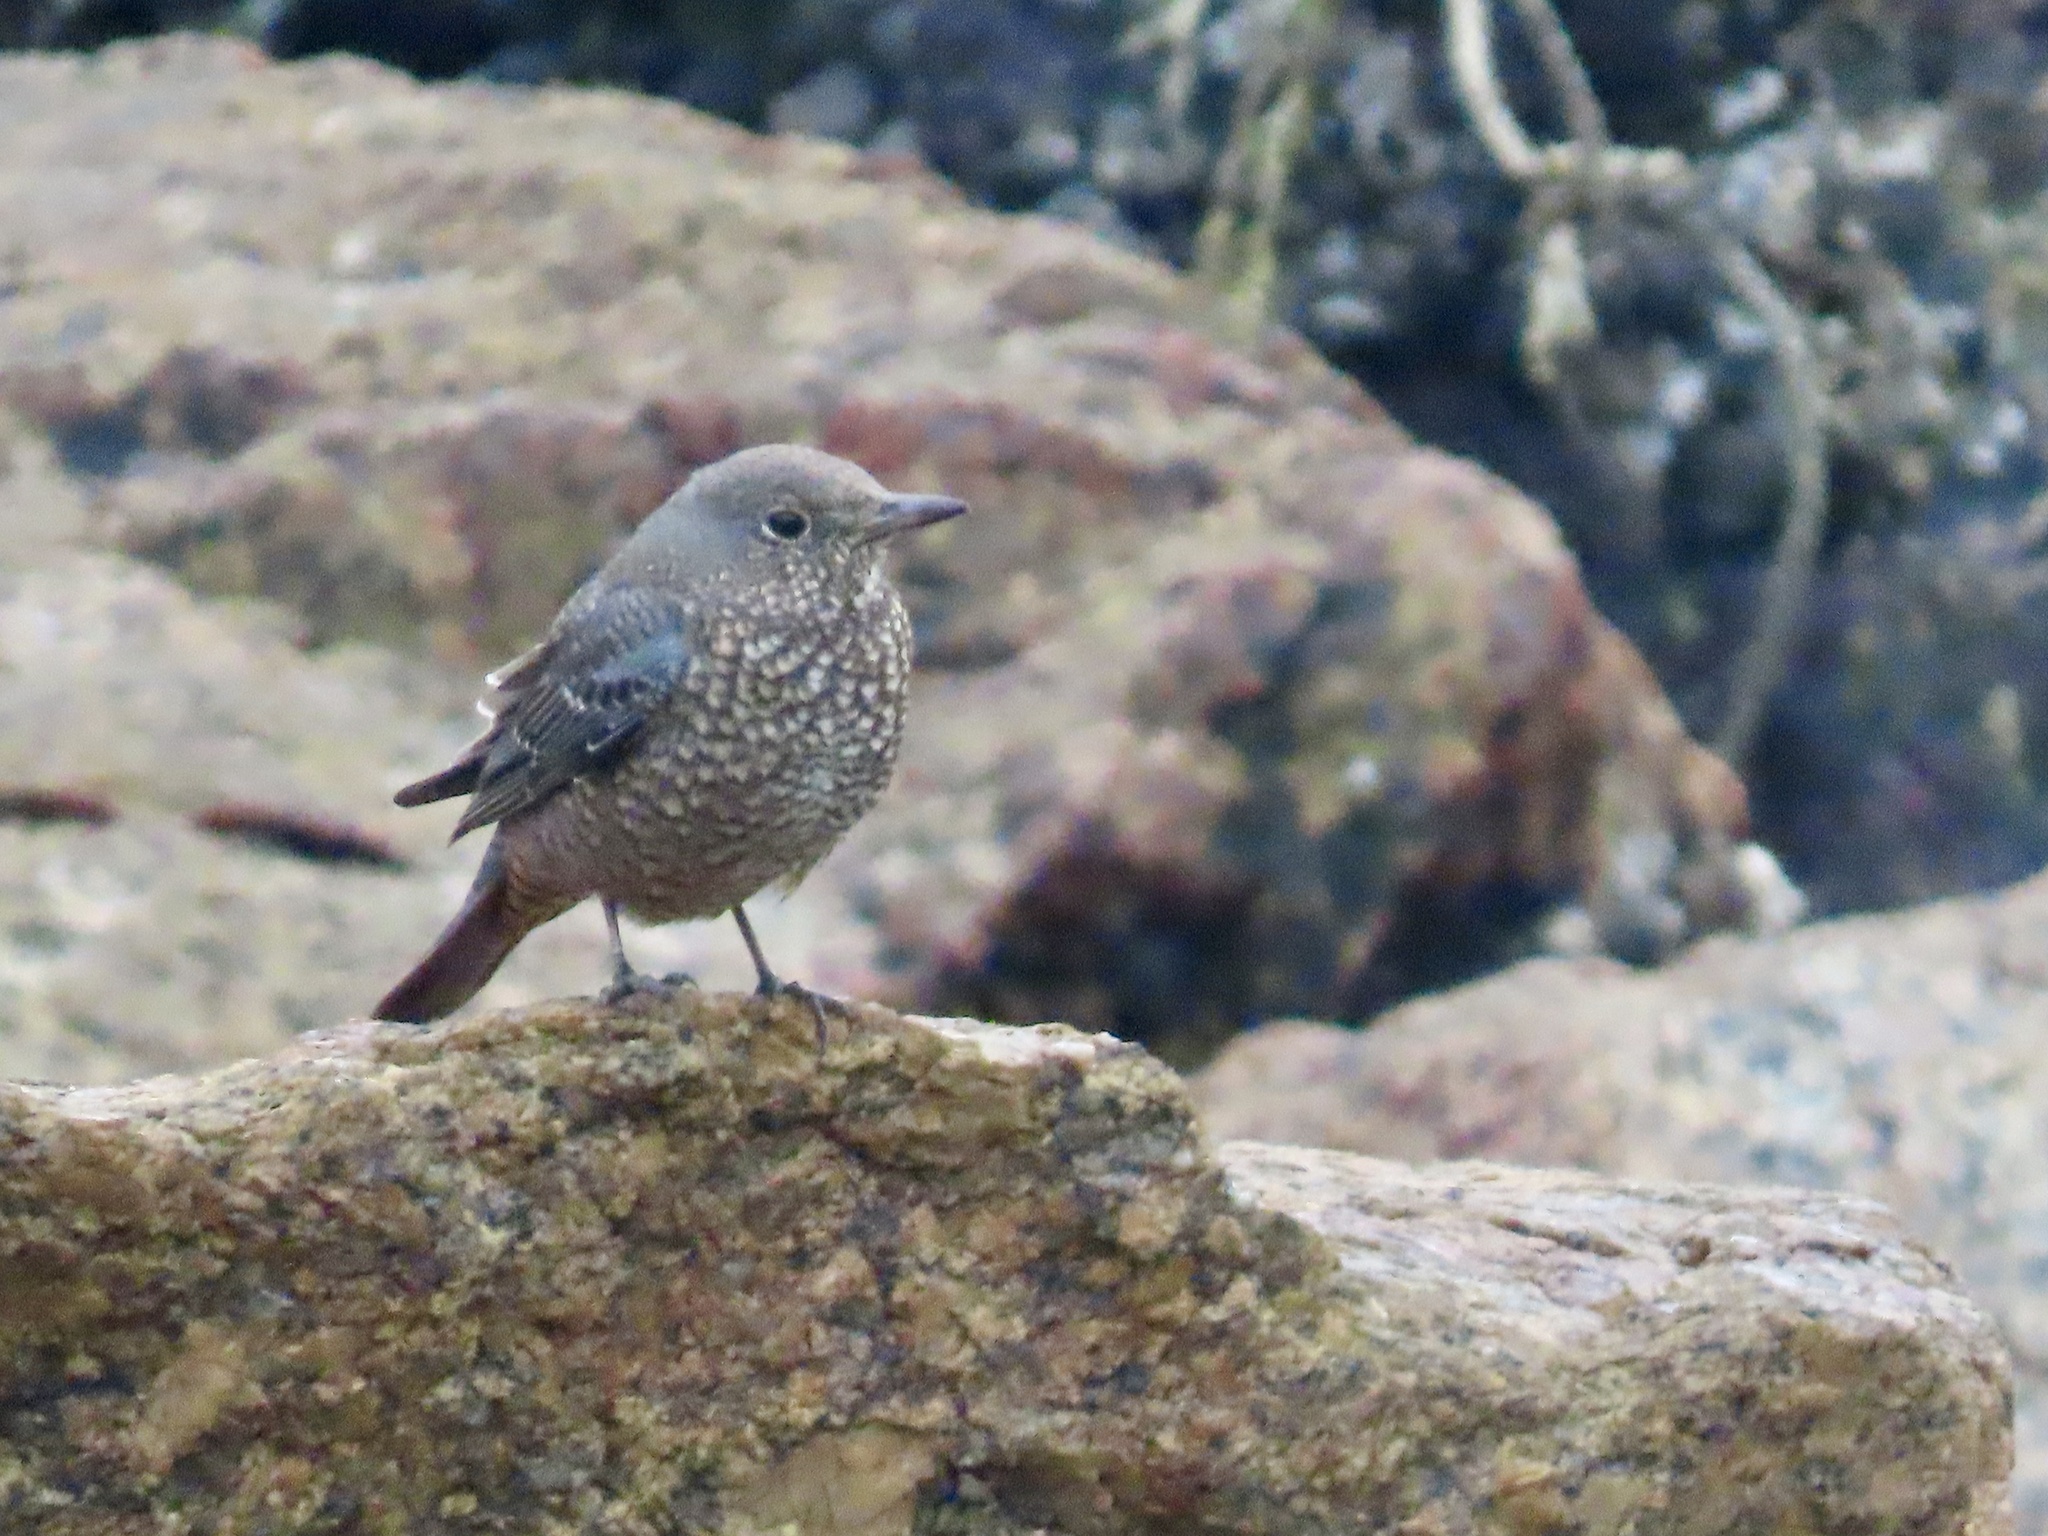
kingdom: Animalia
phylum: Chordata
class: Aves
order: Passeriformes
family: Muscicapidae
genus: Monticola
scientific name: Monticola solitarius
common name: Blue rock thrush
